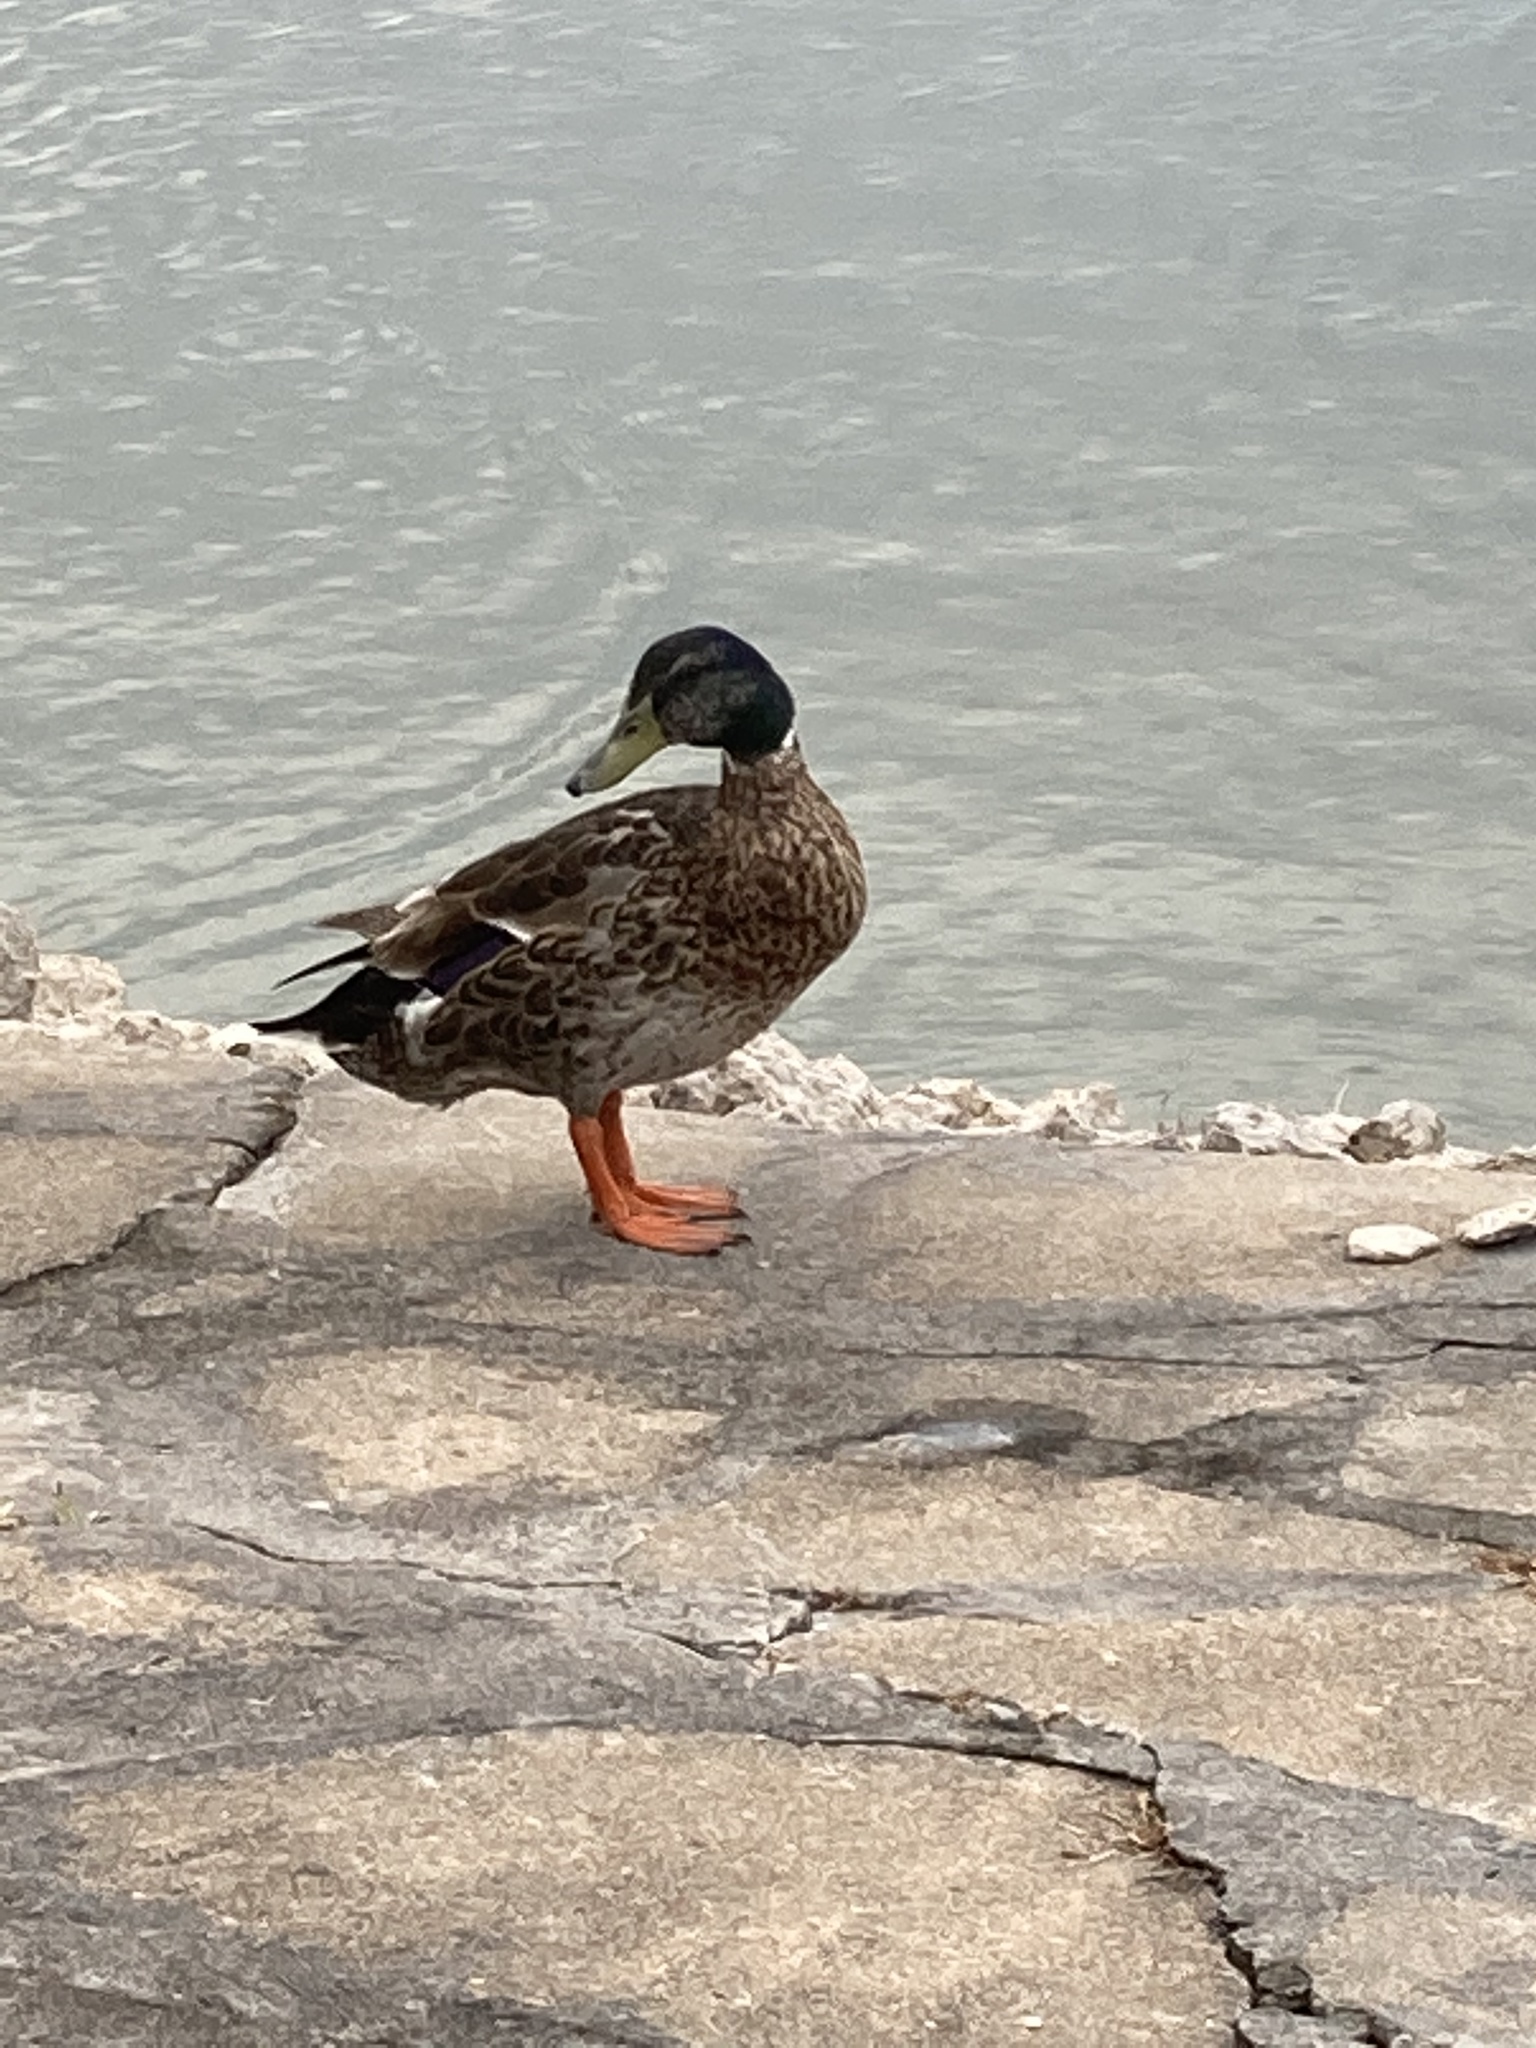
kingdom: Animalia
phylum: Chordata
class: Aves
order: Anseriformes
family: Anatidae
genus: Anas
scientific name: Anas platyrhynchos
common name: Mallard
